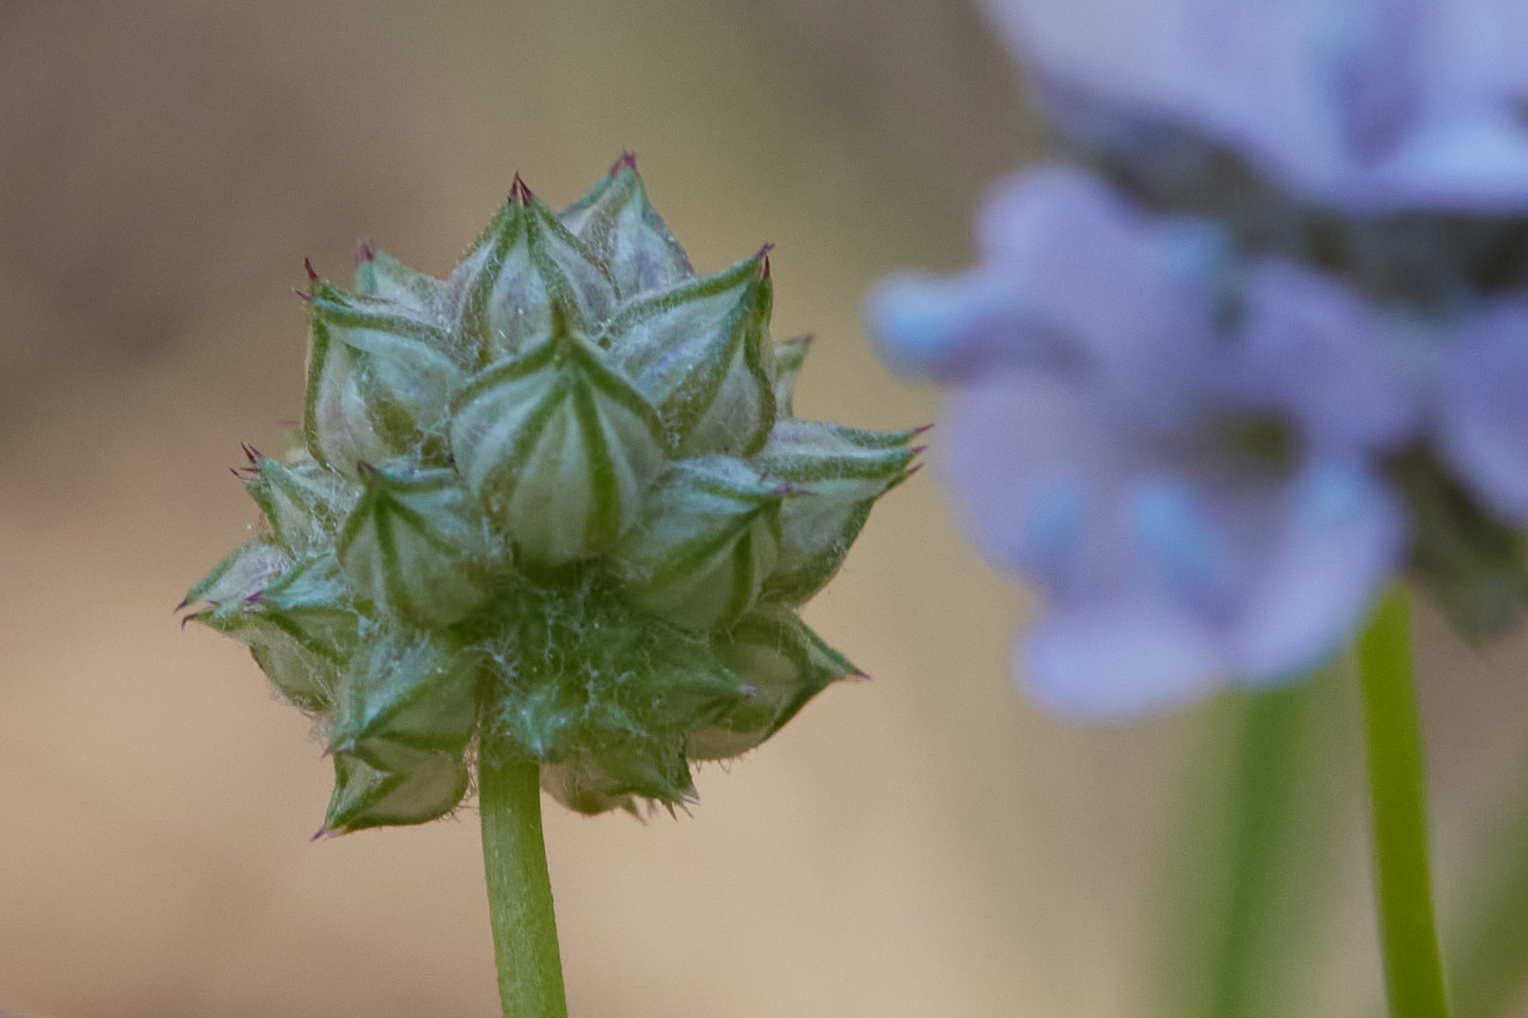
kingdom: Plantae
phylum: Tracheophyta
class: Magnoliopsida
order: Ericales
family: Polemoniaceae
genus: Gilia
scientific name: Gilia capitata
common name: Bluehead gilia
